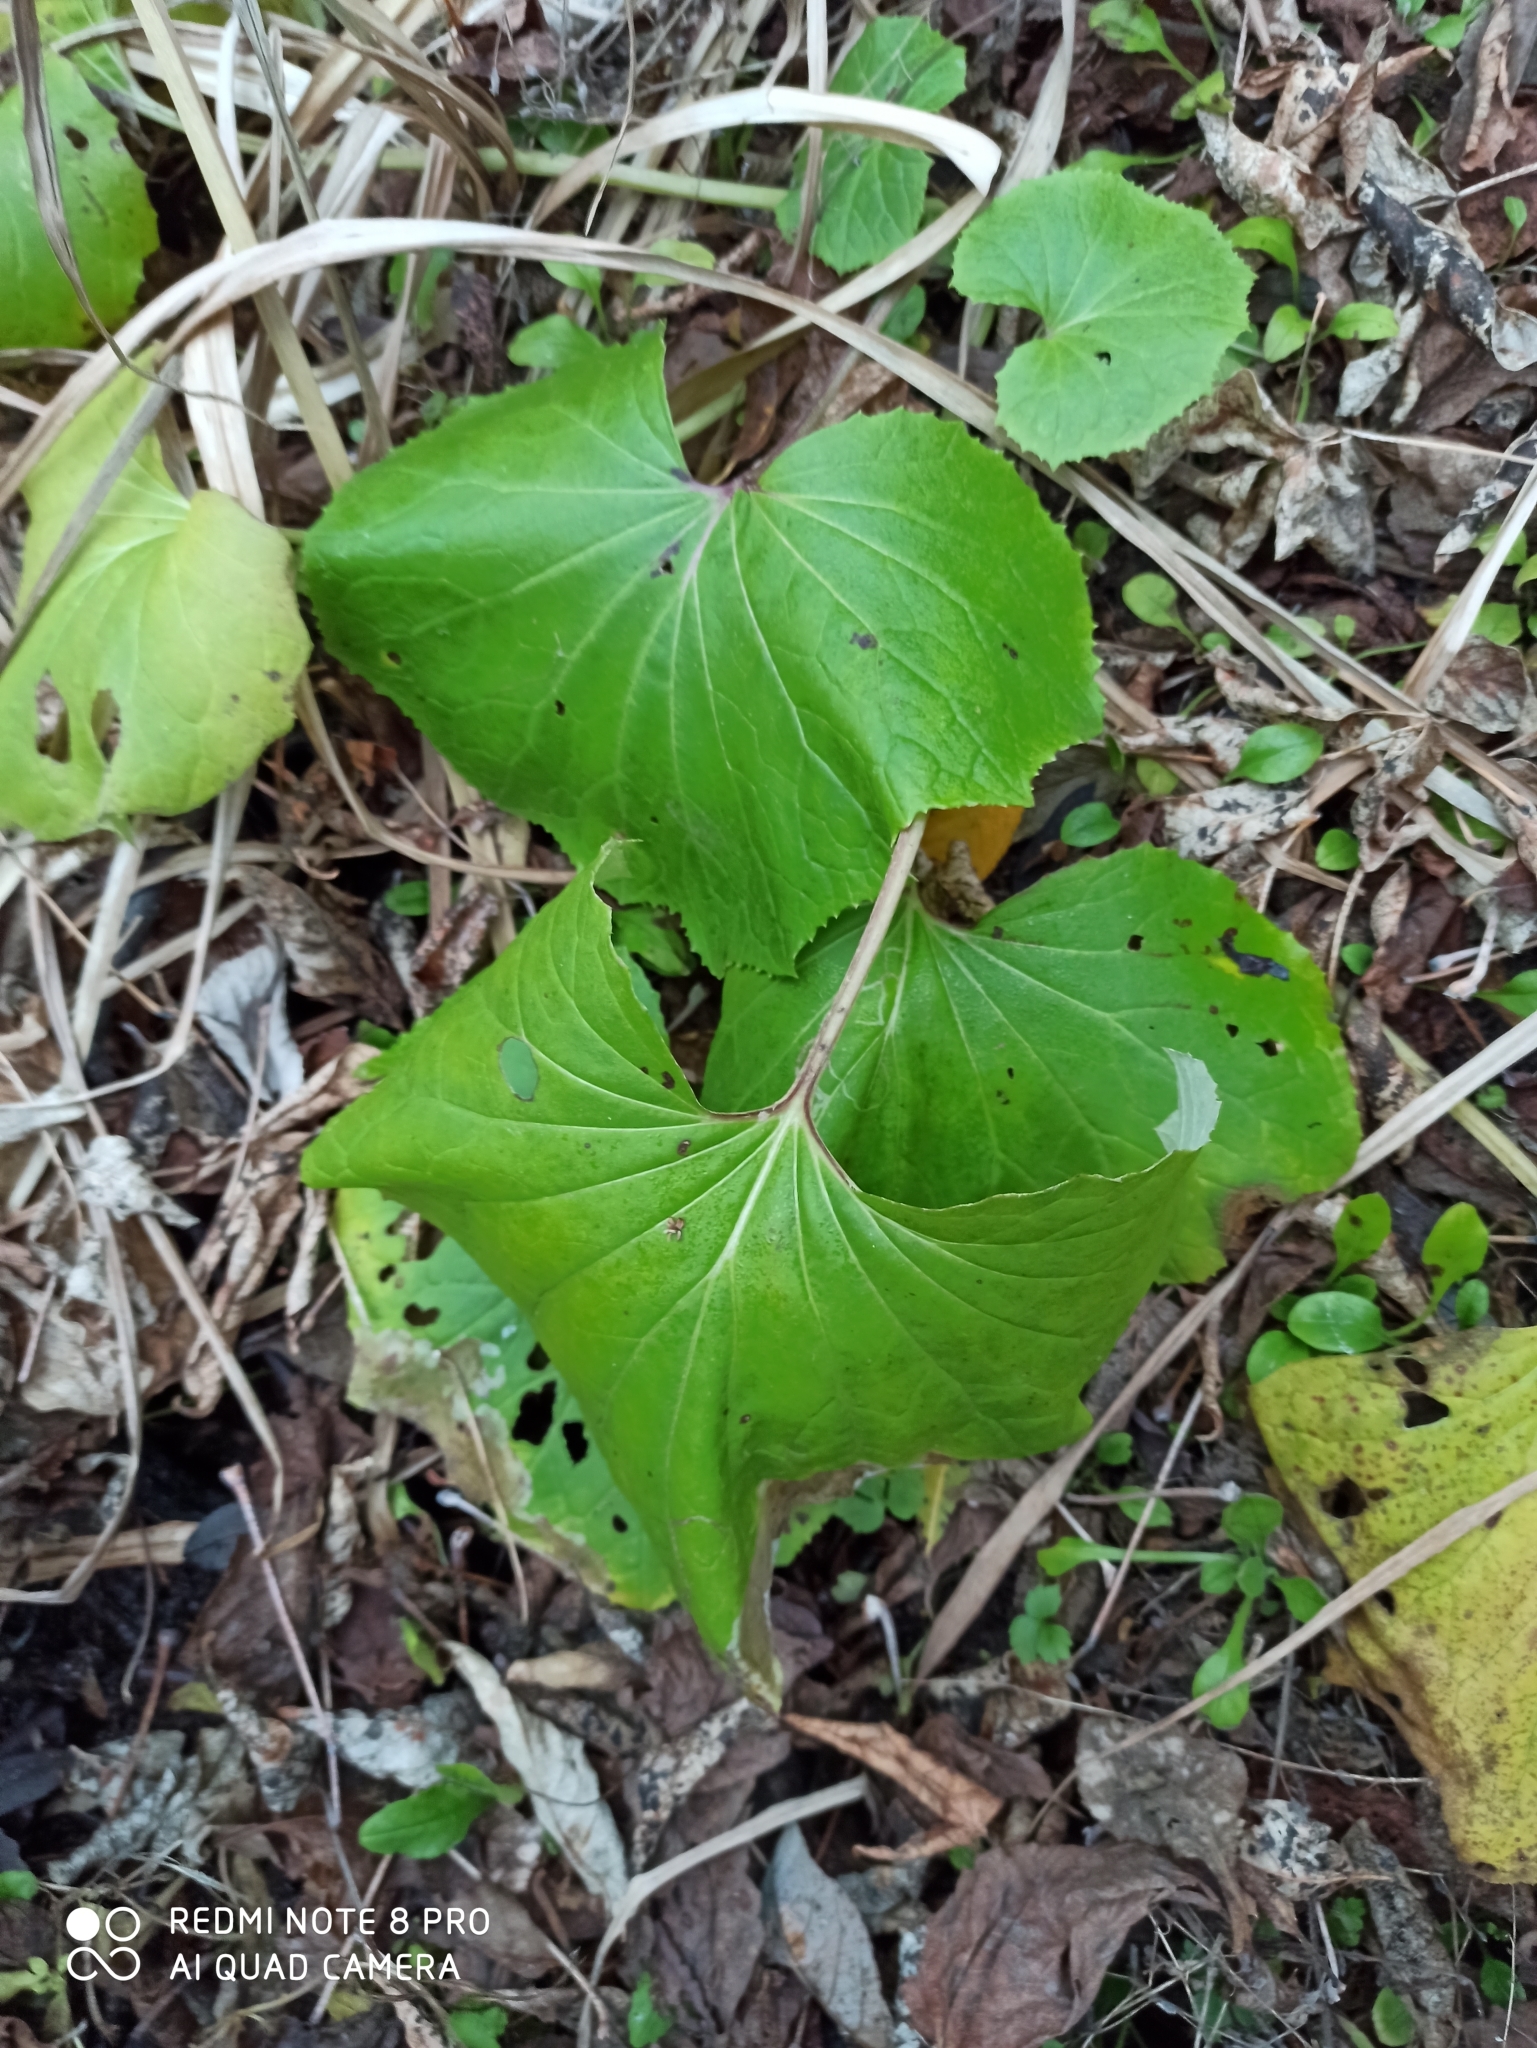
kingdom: Plantae
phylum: Tracheophyta
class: Magnoliopsida
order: Asterales
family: Asteraceae
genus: Tussilago
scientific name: Tussilago farfara
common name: Coltsfoot
